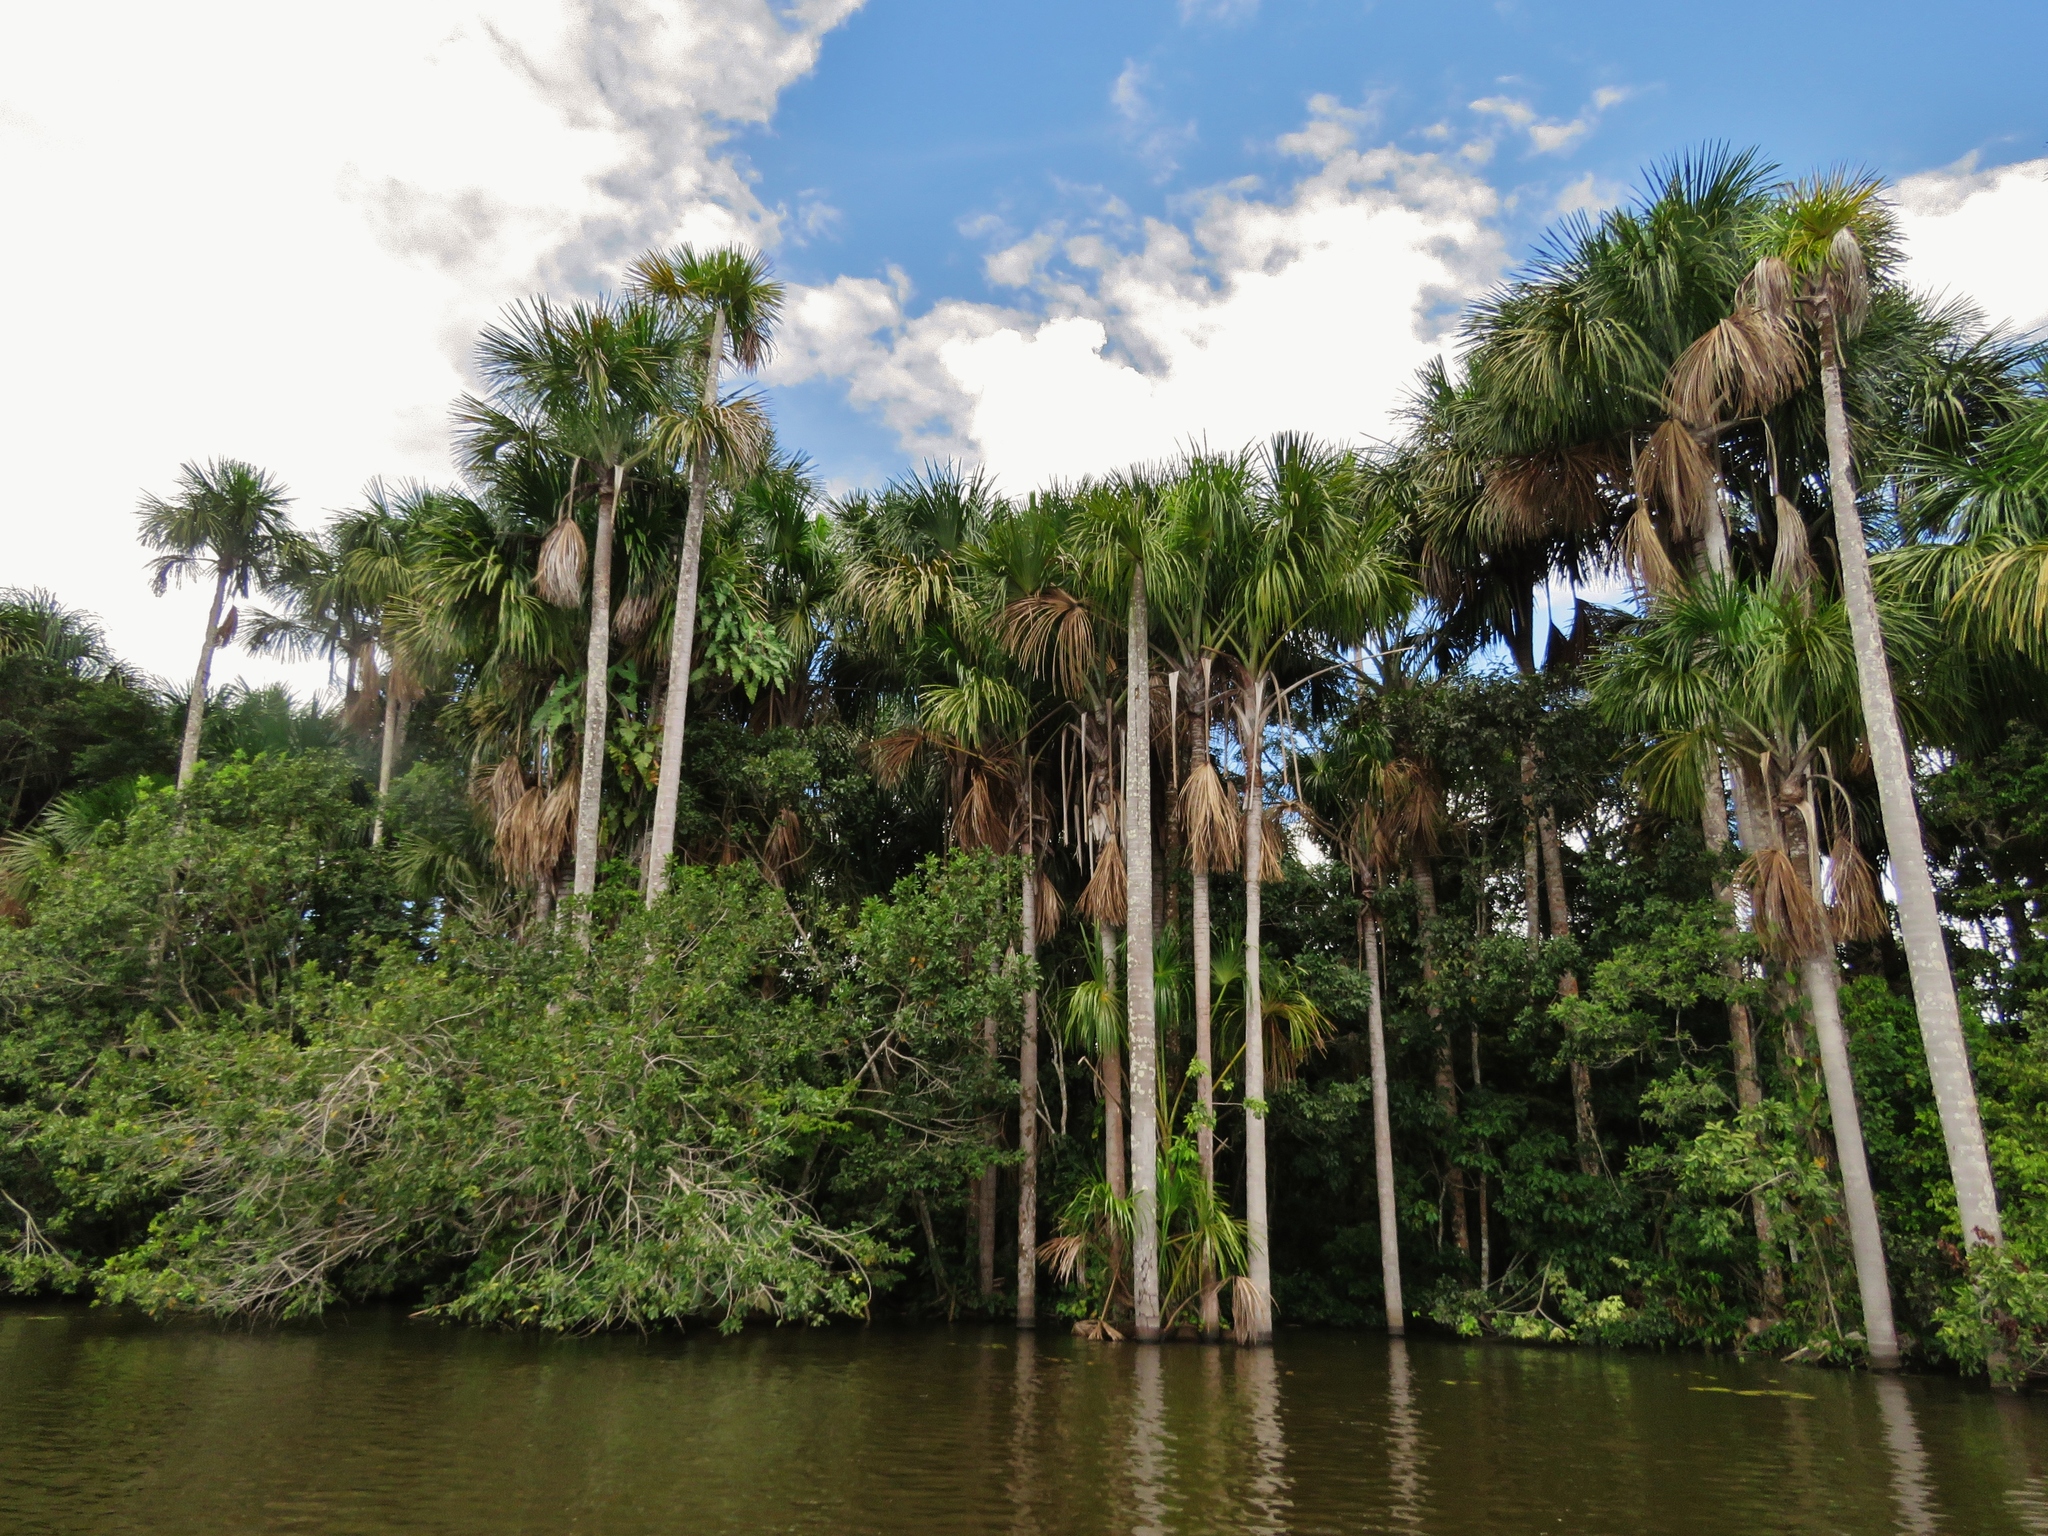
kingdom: Plantae
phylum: Tracheophyta
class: Liliopsida
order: Arecales
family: Arecaceae
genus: Mauritia
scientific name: Mauritia flexuosa
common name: Tree-of-life
